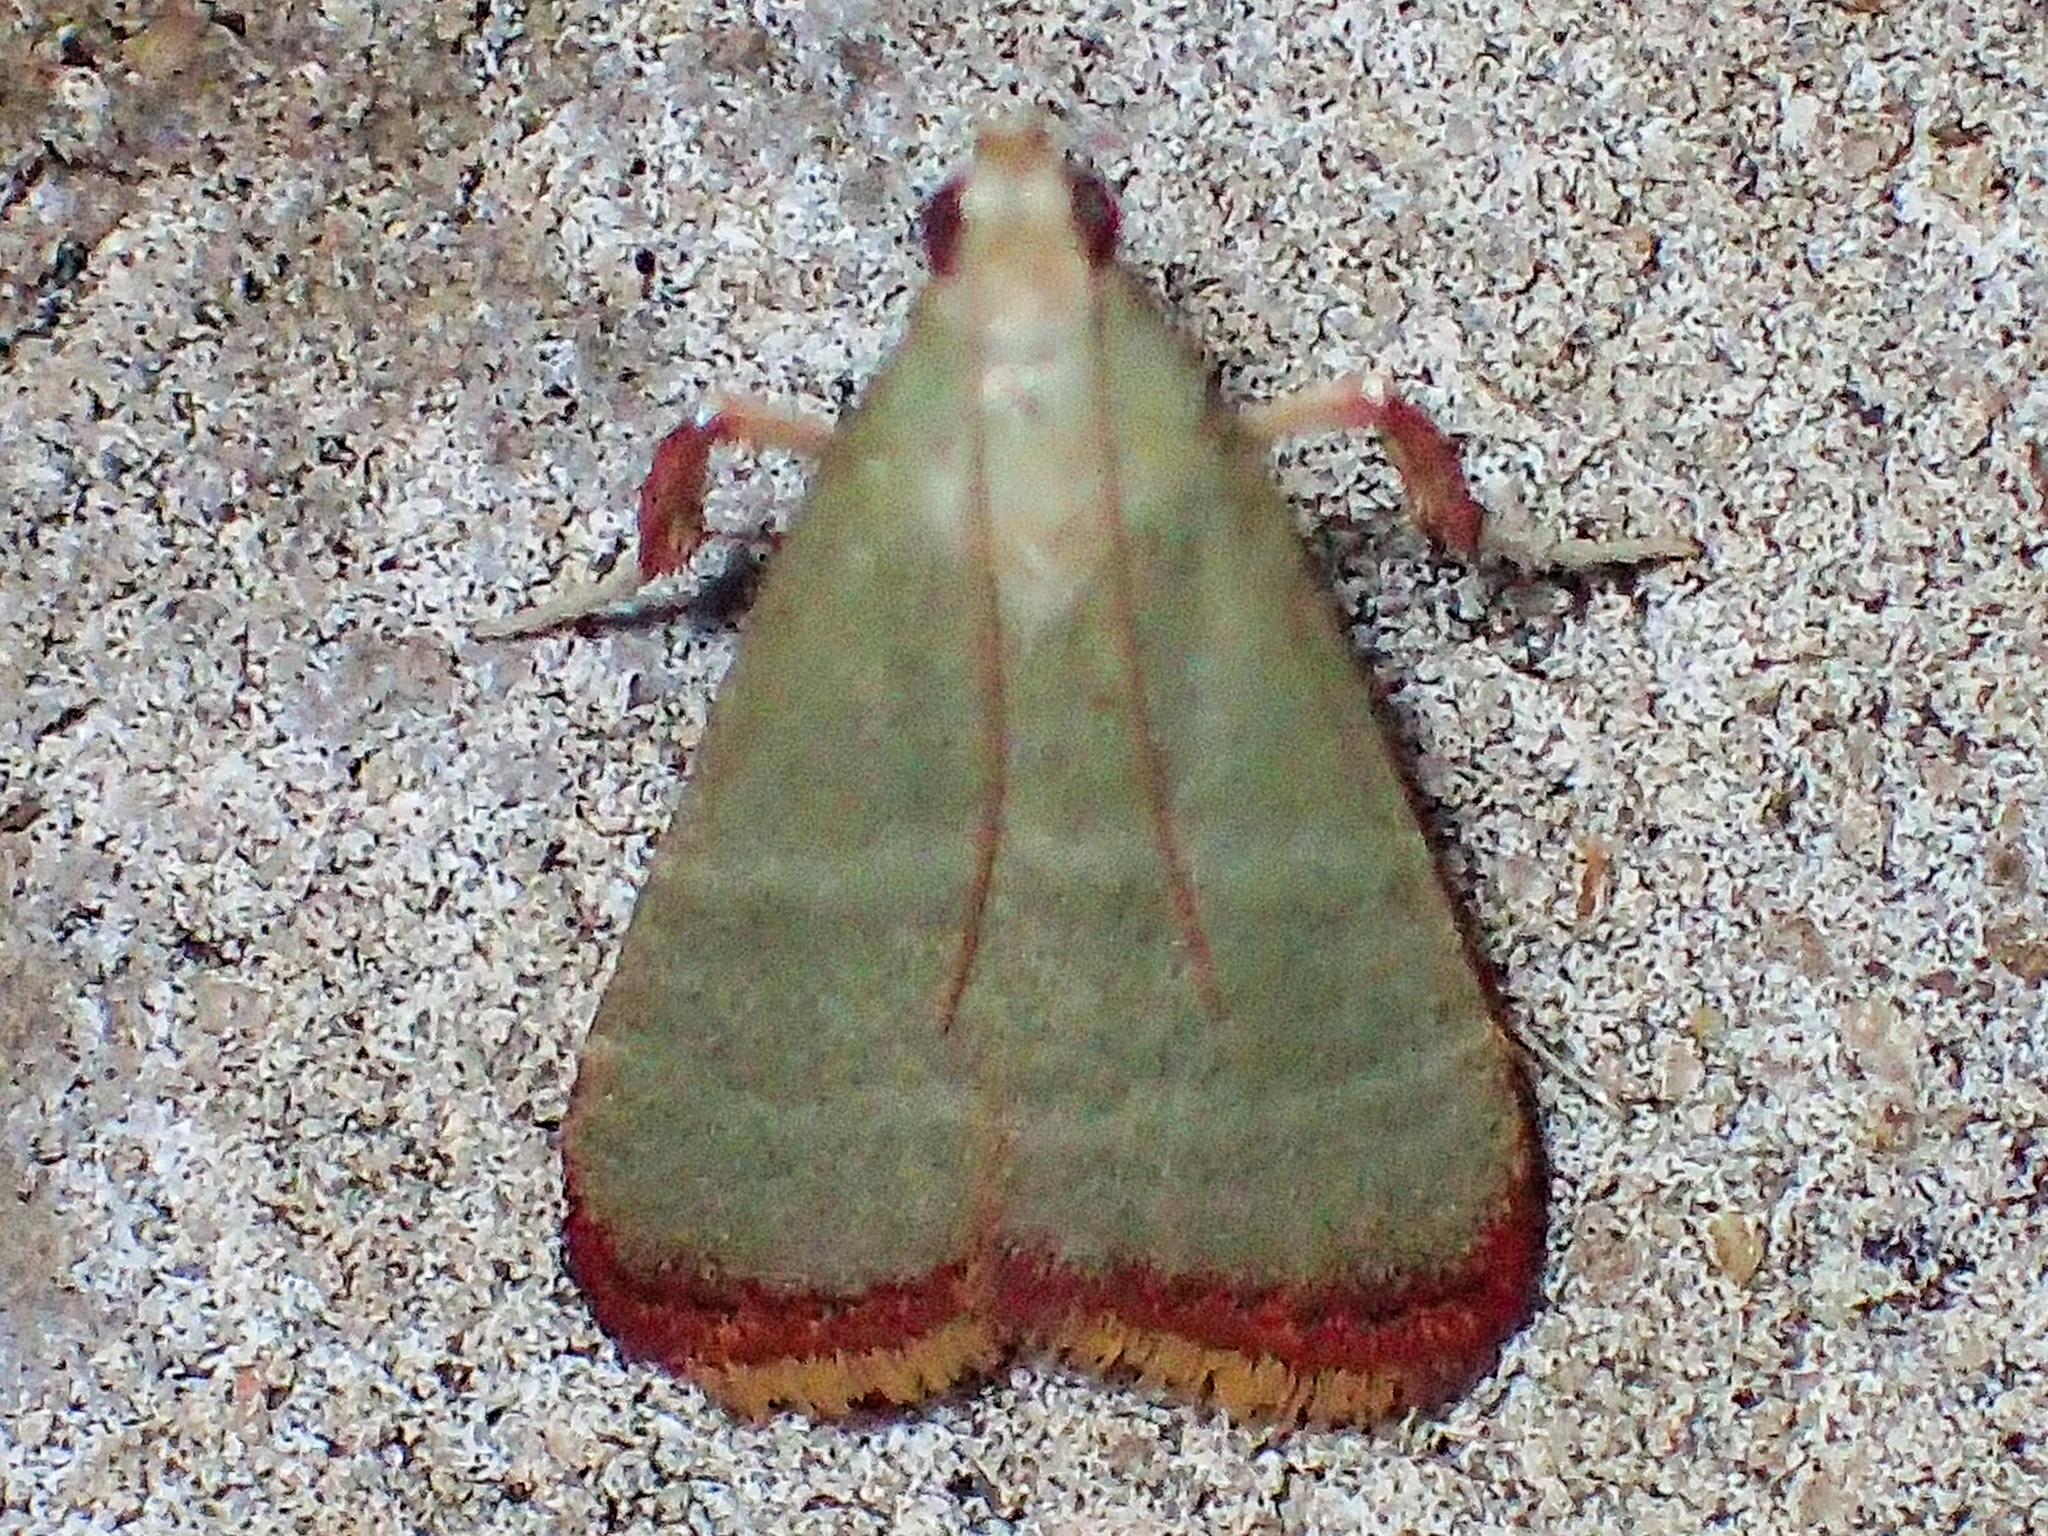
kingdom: Animalia
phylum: Arthropoda
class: Insecta
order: Lepidoptera
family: Pyralidae
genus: Arta
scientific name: Arta olivalis
